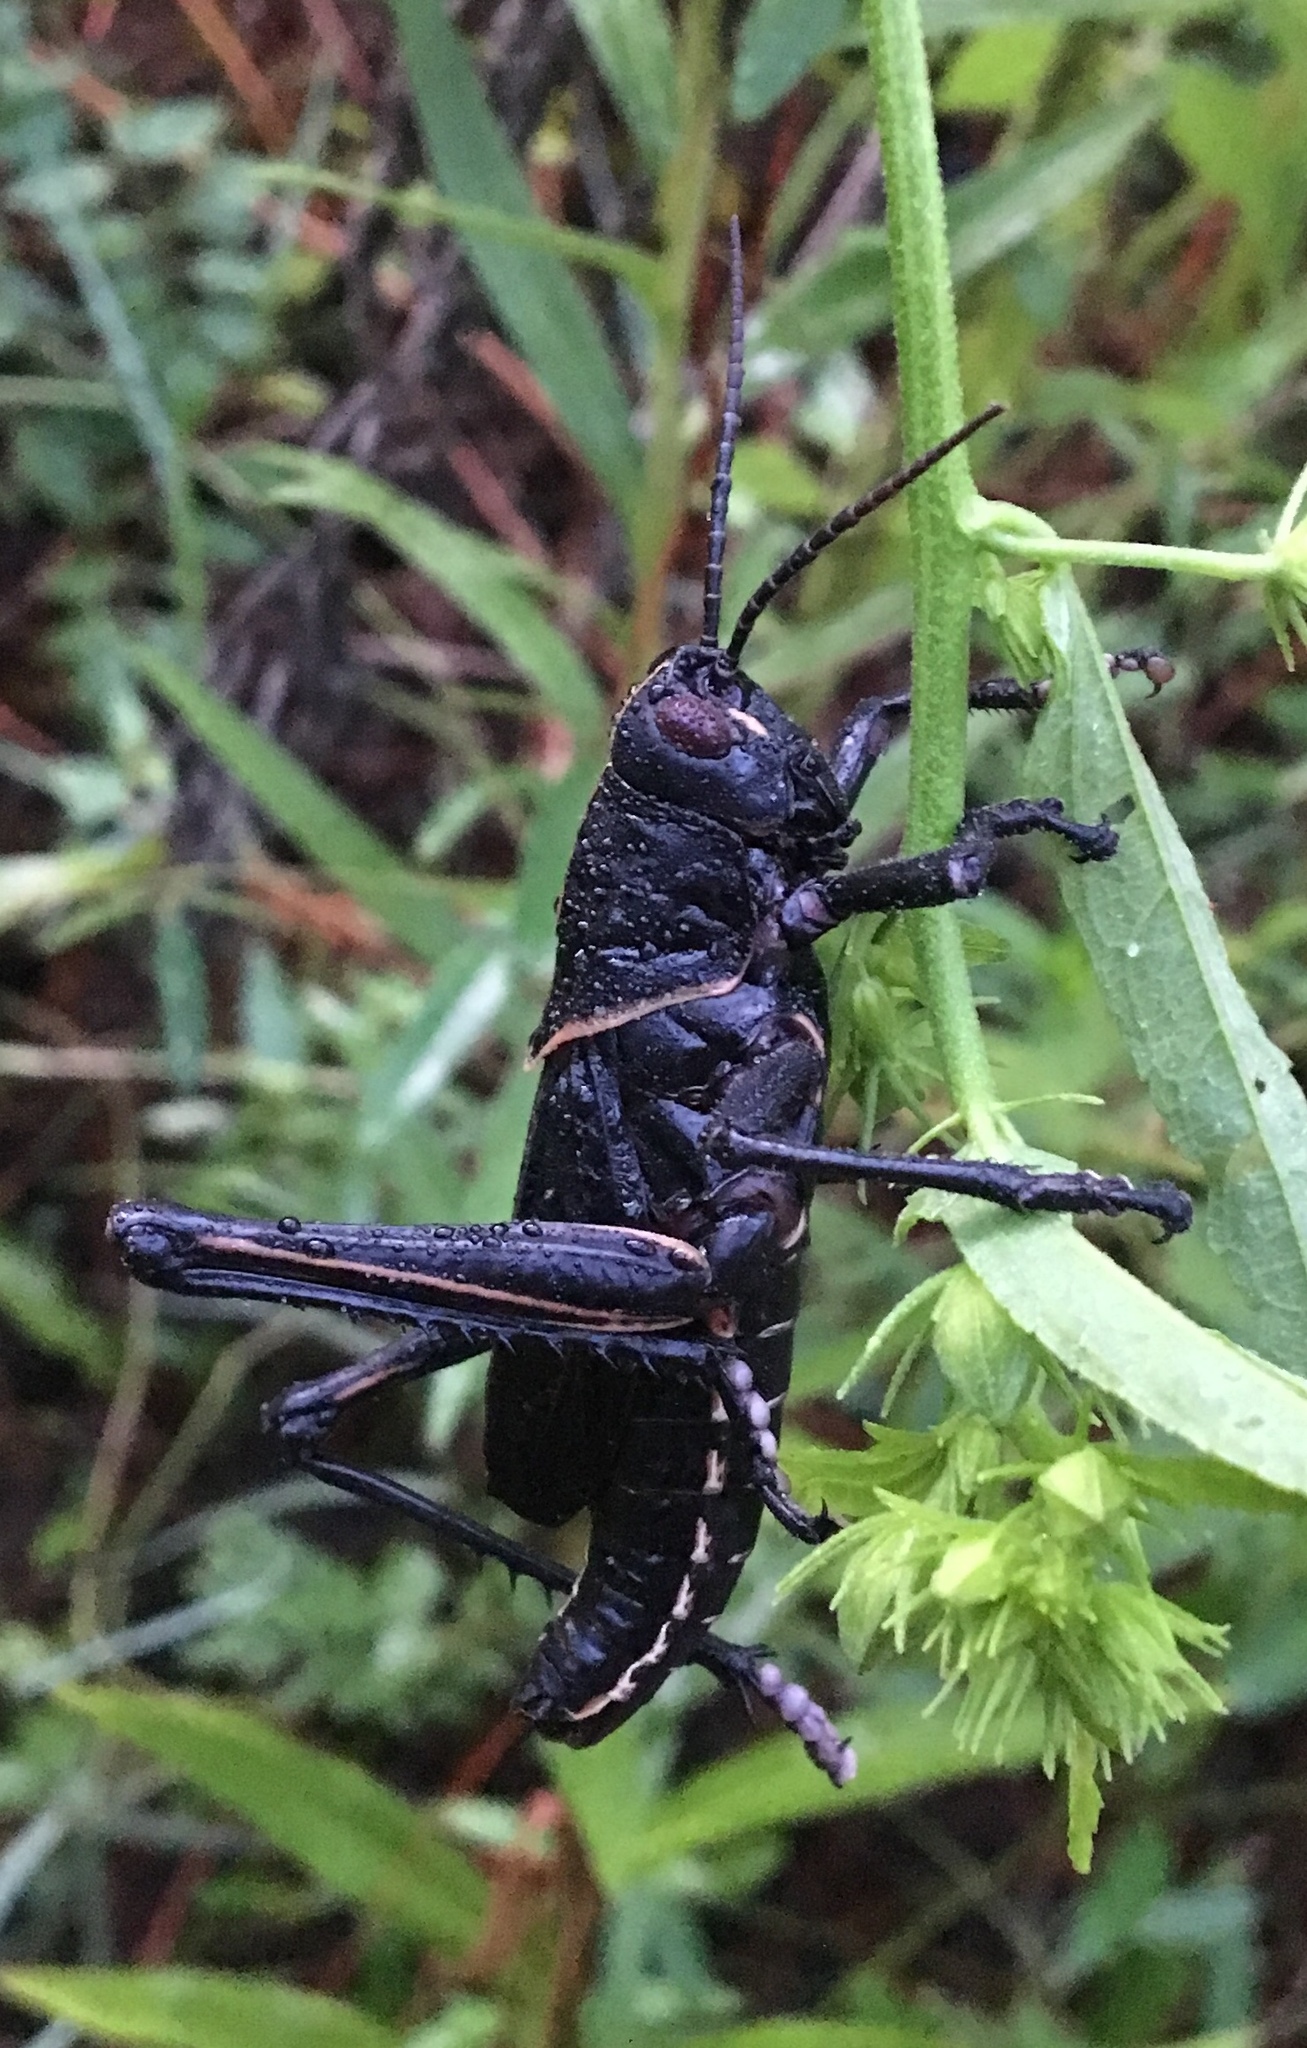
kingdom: Animalia
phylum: Arthropoda
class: Insecta
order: Orthoptera
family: Romaleidae
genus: Romalea
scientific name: Romalea microptera
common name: Eastern lubber grasshopper
